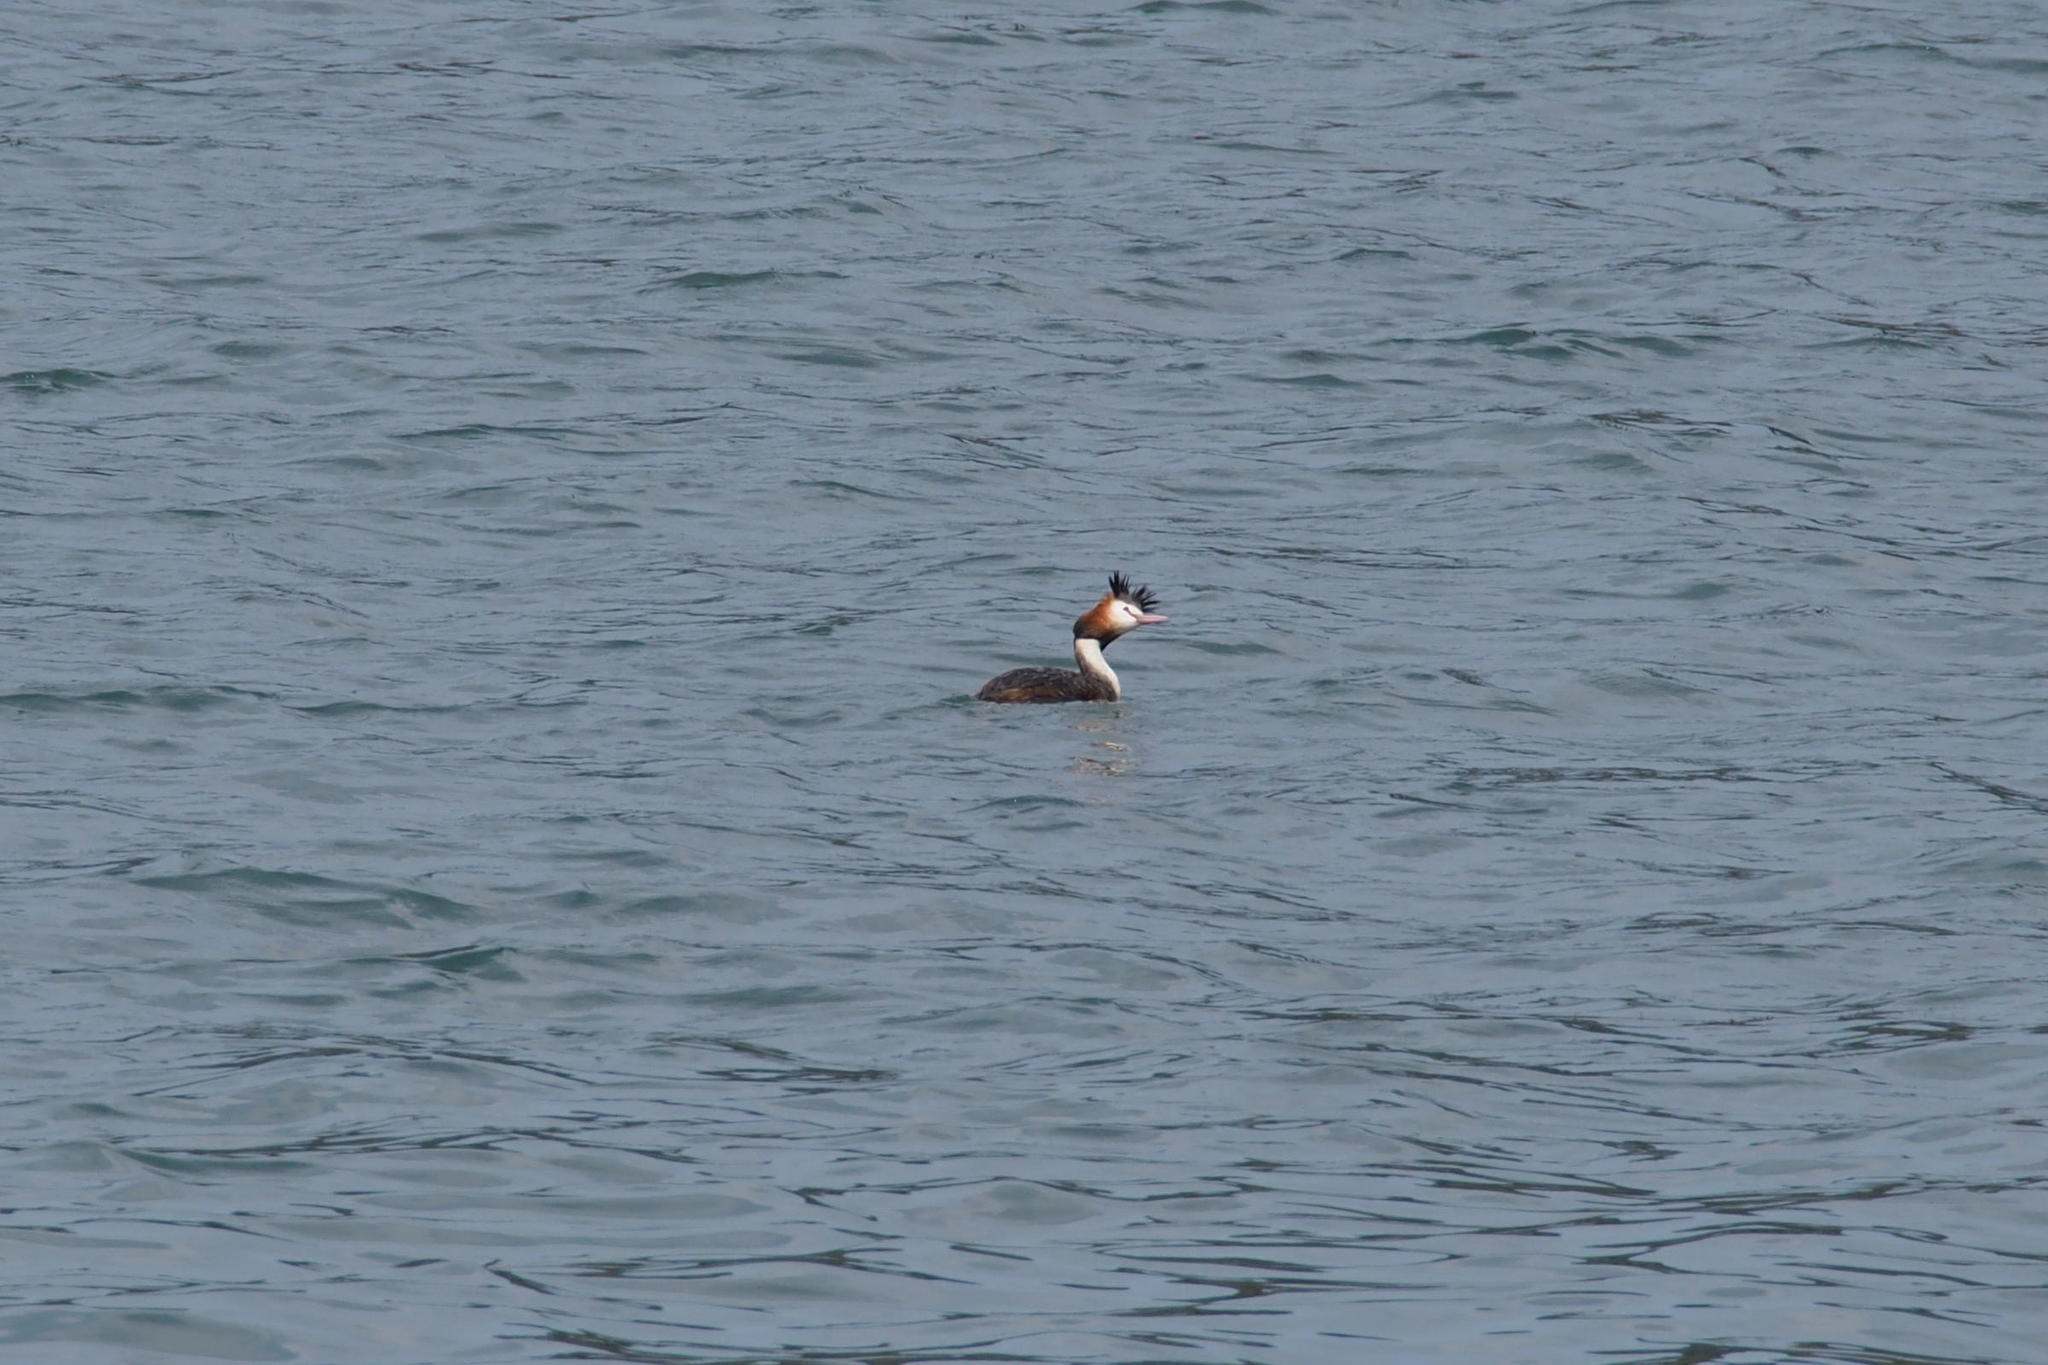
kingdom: Animalia
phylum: Chordata
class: Aves
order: Podicipediformes
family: Podicipedidae
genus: Podiceps
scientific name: Podiceps cristatus
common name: Great crested grebe
